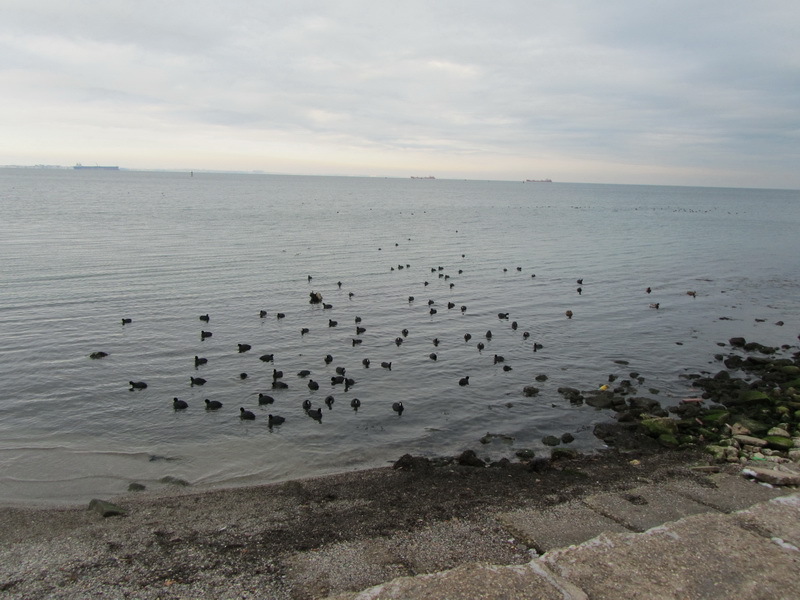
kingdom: Animalia
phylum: Chordata
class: Aves
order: Gruiformes
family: Rallidae
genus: Fulica
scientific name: Fulica atra
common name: Eurasian coot
